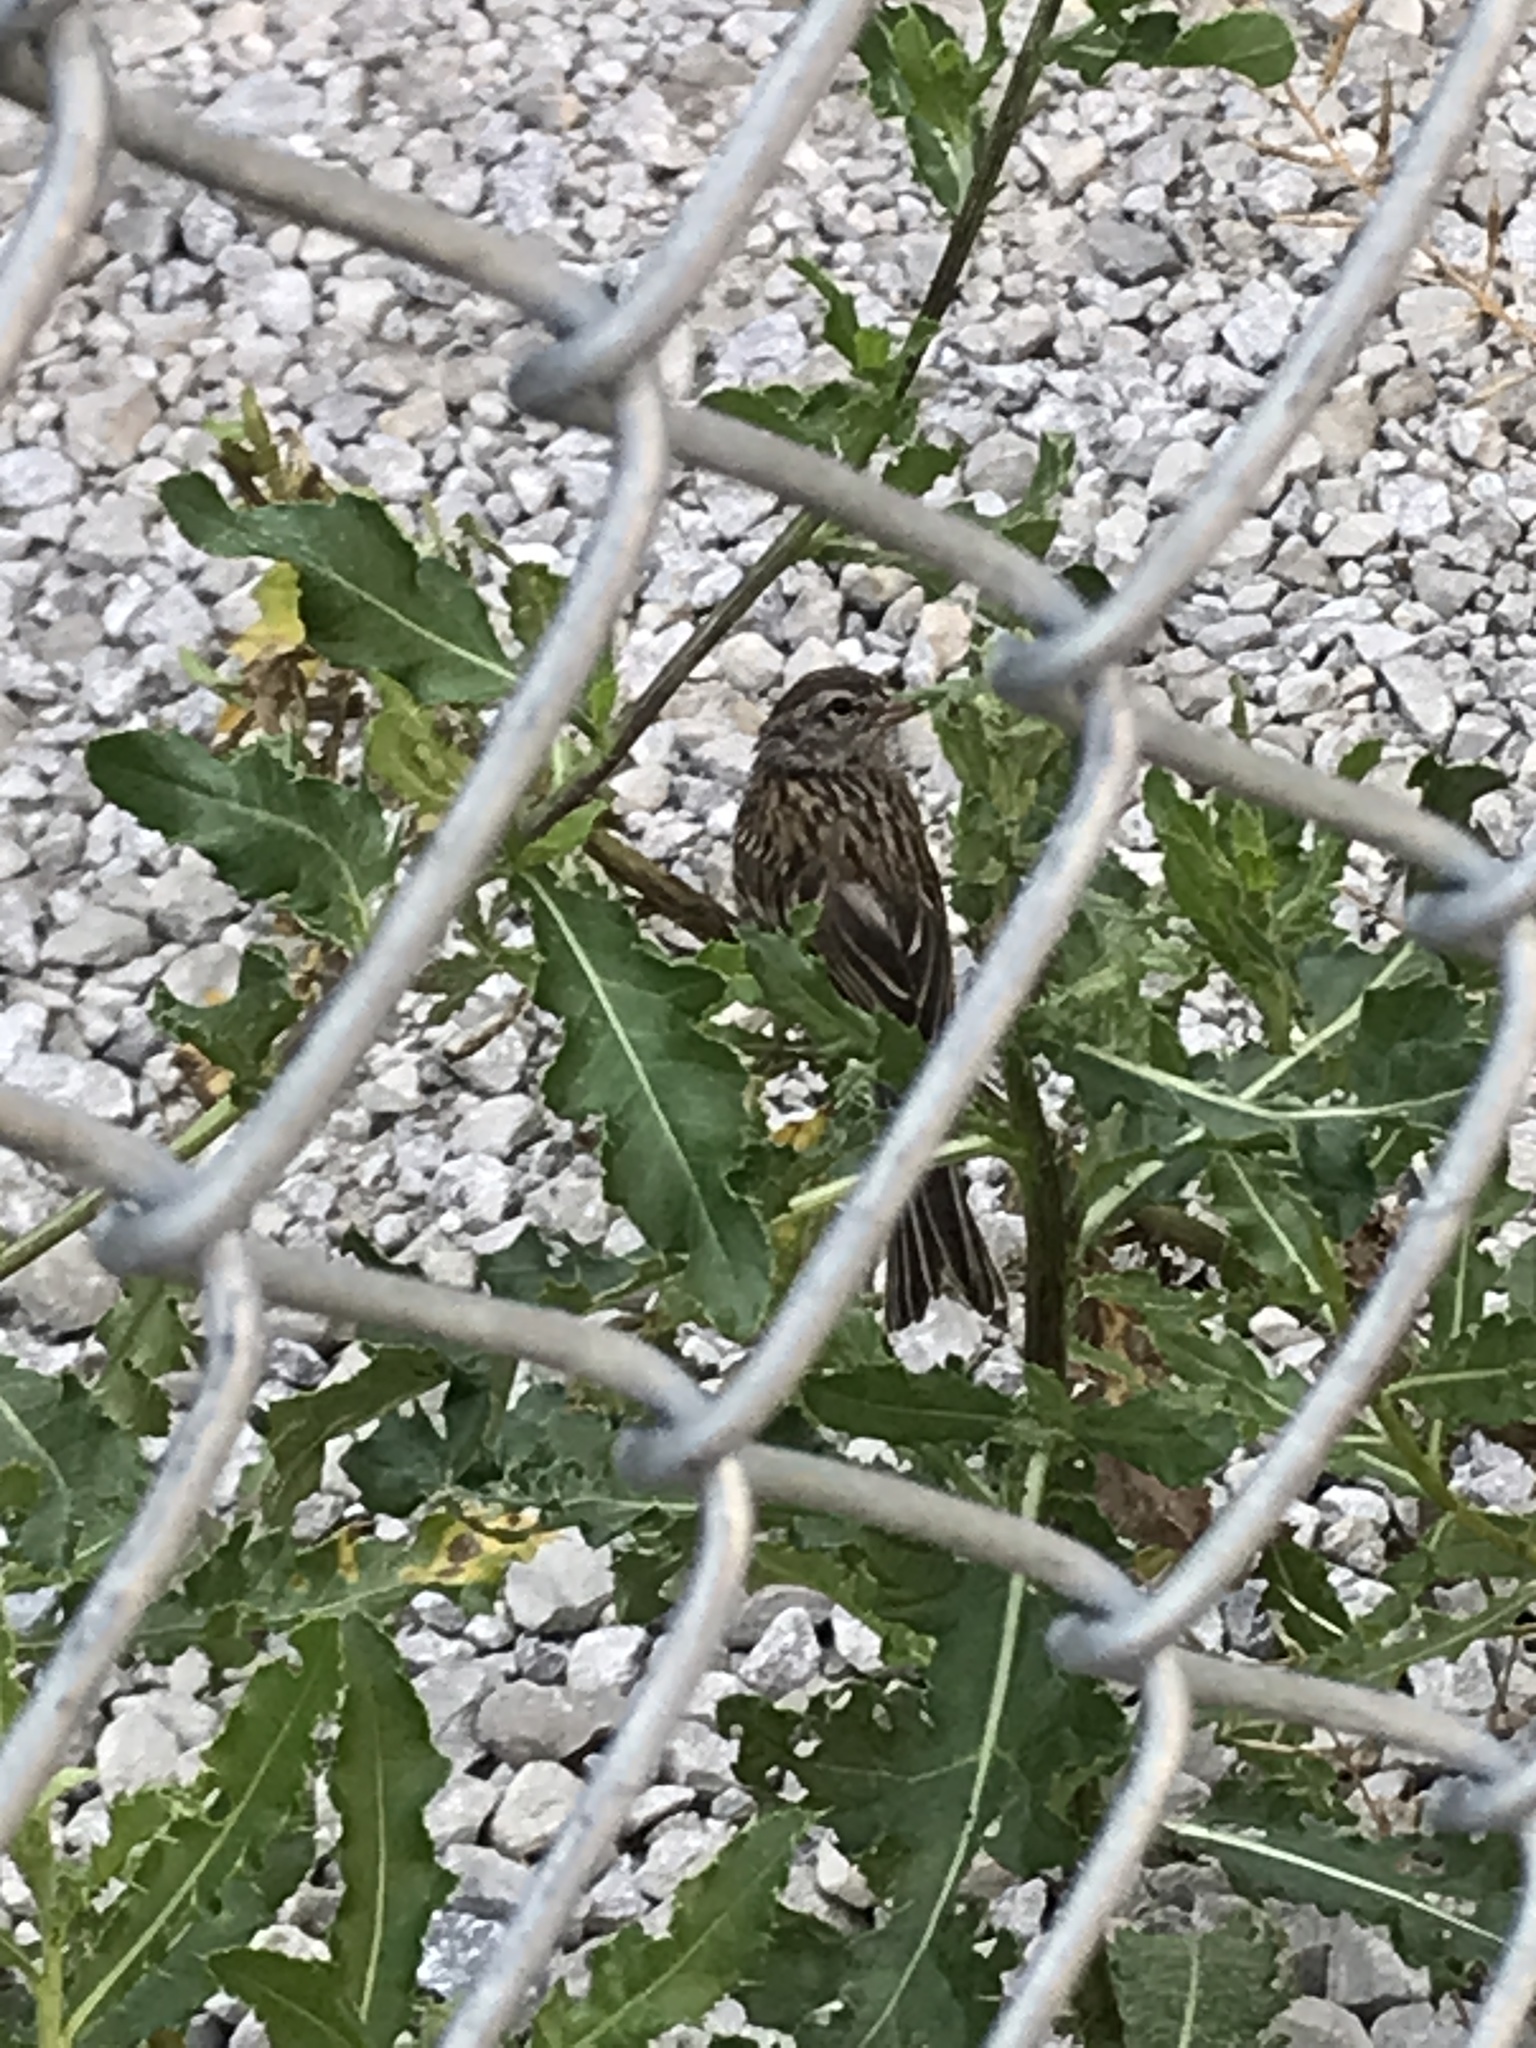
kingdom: Animalia
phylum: Chordata
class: Aves
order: Passeriformes
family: Passerellidae
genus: Spizella
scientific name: Spizella passerina
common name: Chipping sparrow
